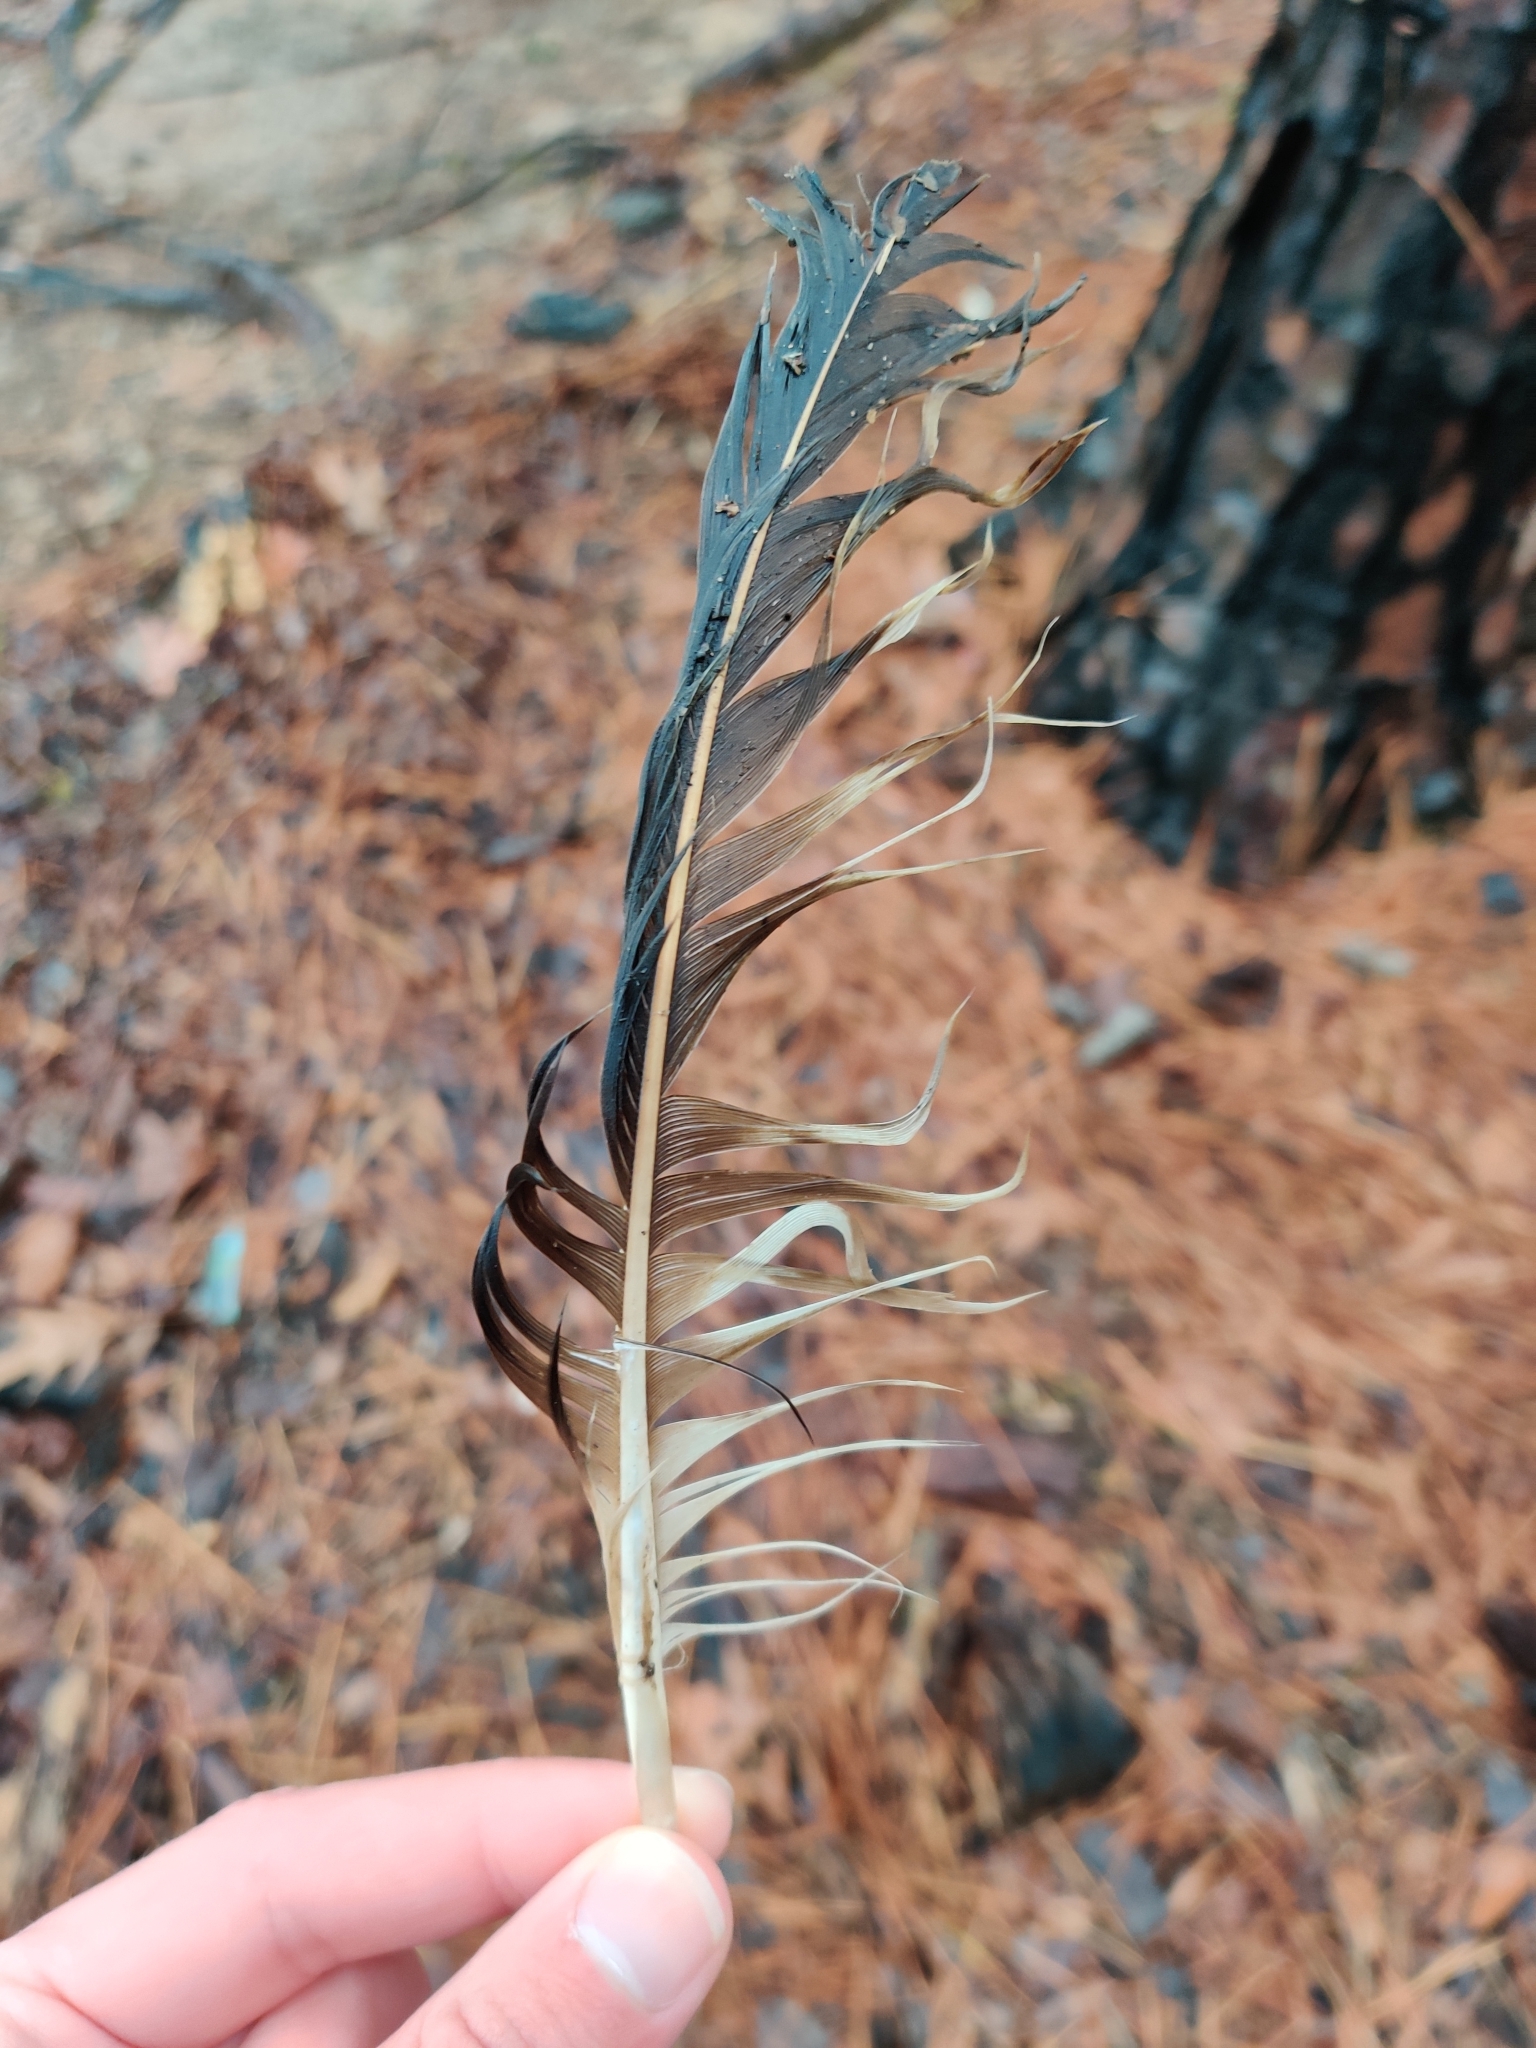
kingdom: Animalia
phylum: Chordata
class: Aves
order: Accipitriformes
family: Pandionidae
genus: Pandion
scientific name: Pandion haliaetus
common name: Osprey
